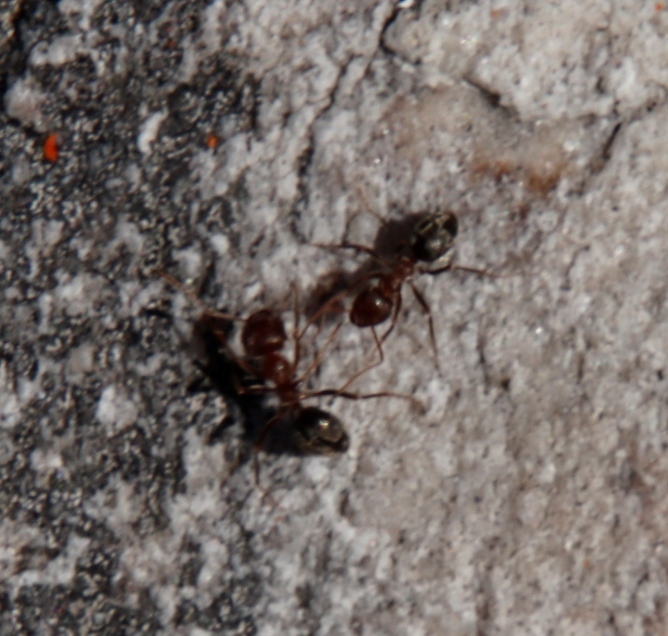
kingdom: Animalia
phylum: Arthropoda
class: Insecta
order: Hymenoptera
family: Formicidae
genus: Anoplolepis
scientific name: Anoplolepis steingroeveri
